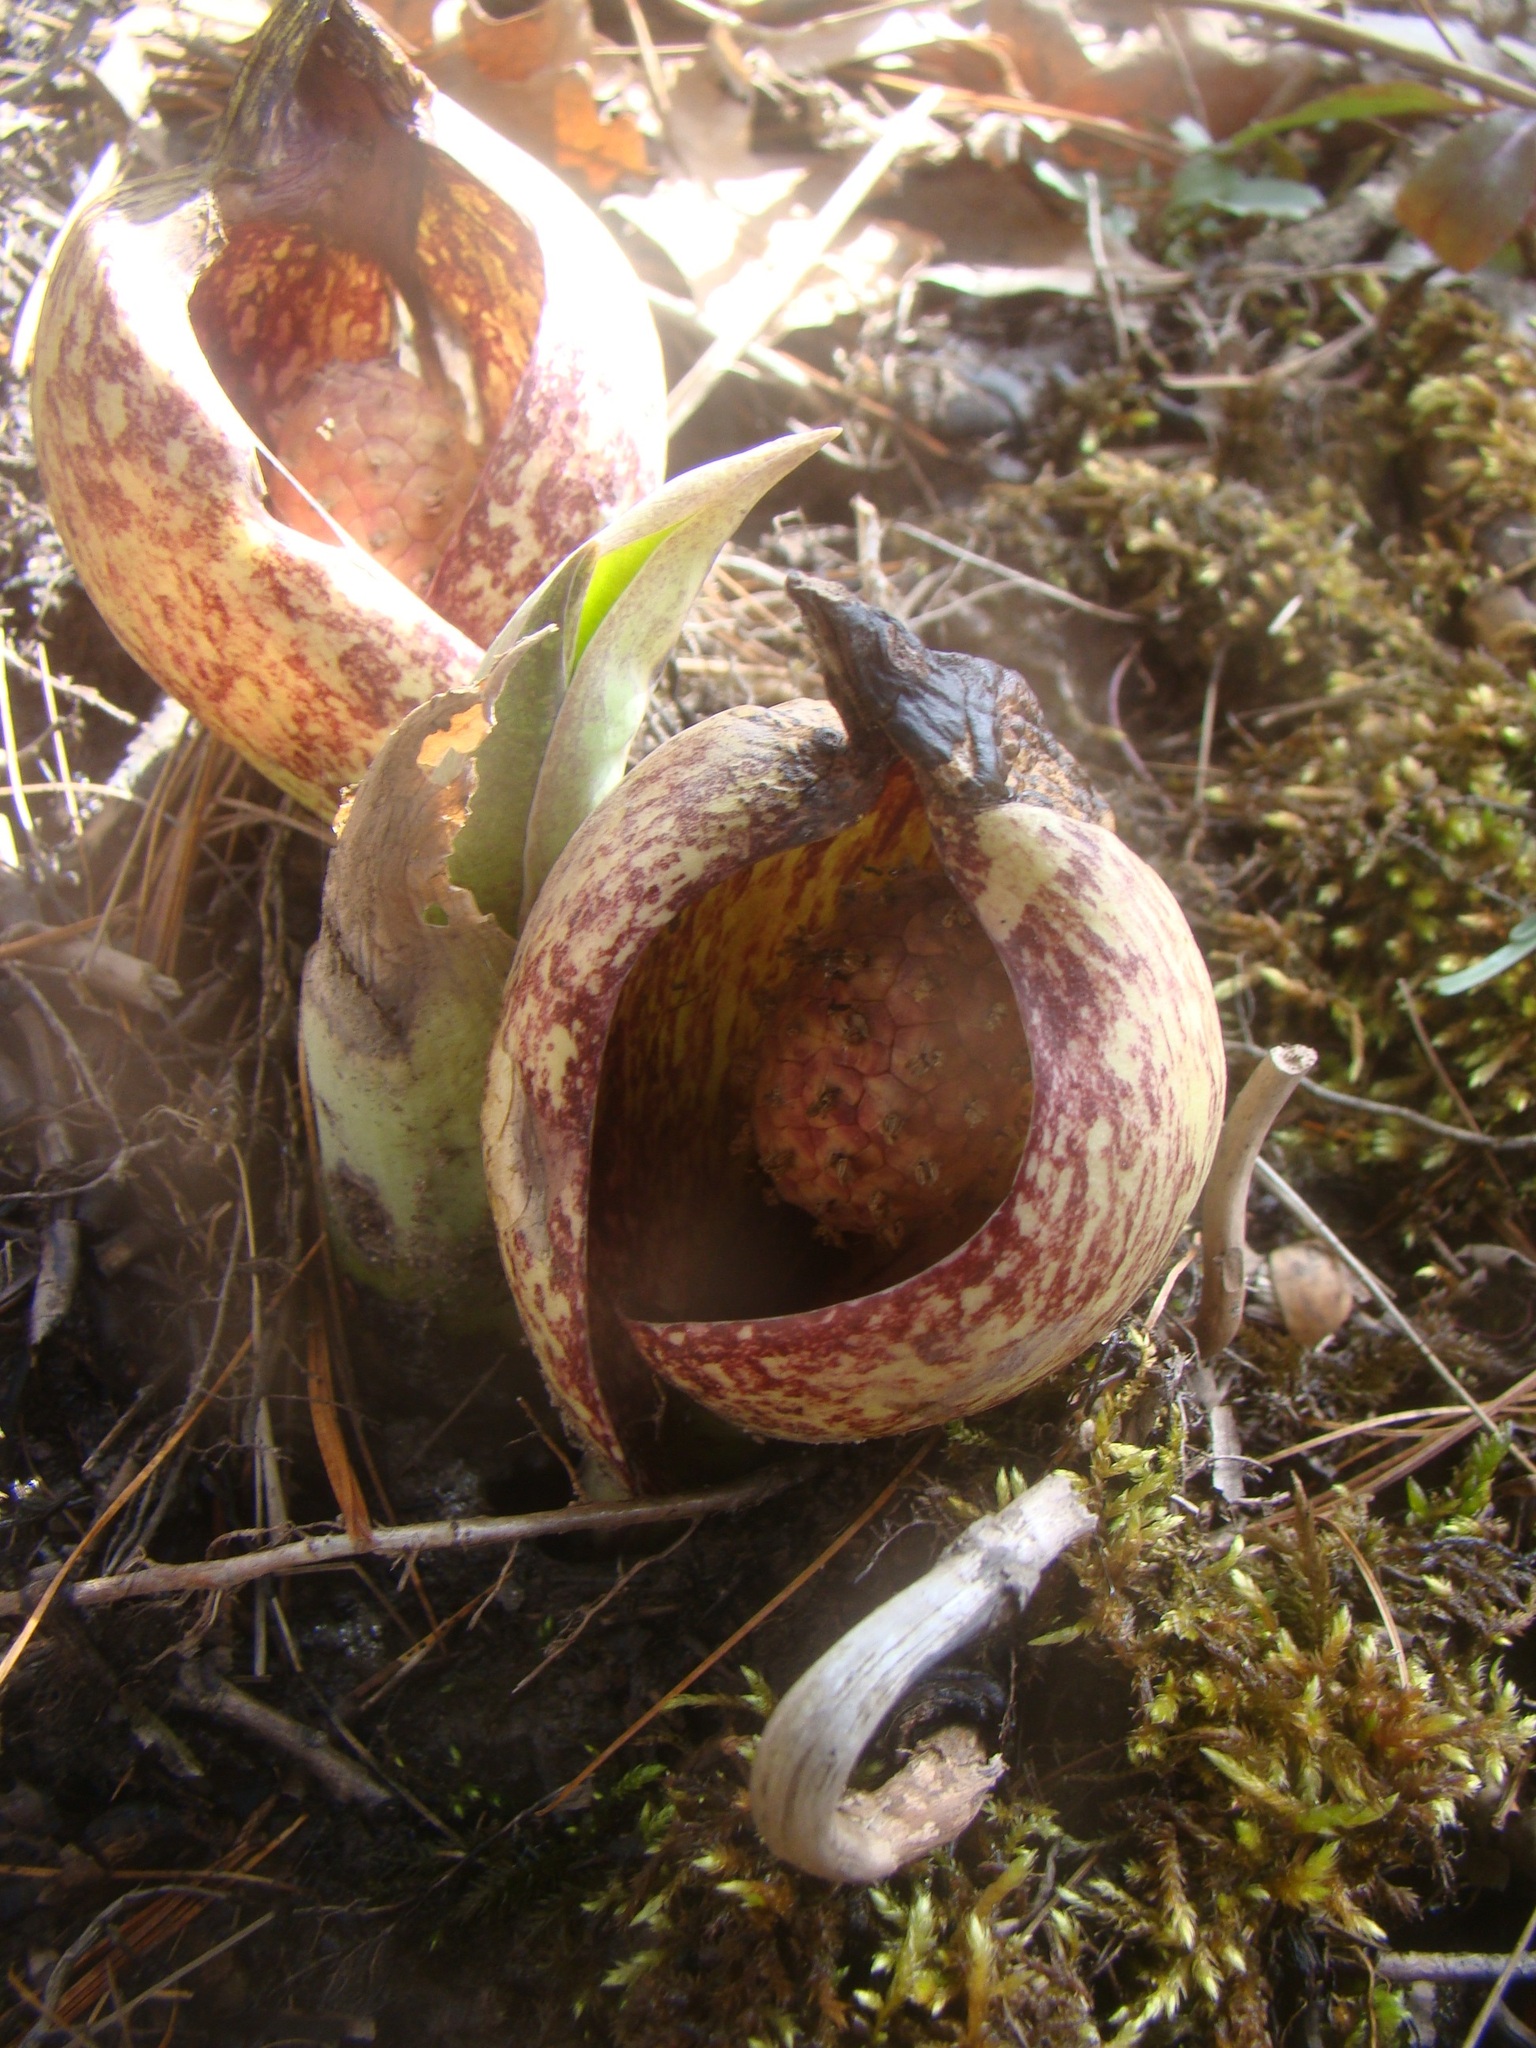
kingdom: Plantae
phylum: Tracheophyta
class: Liliopsida
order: Alismatales
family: Araceae
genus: Symplocarpus
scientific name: Symplocarpus foetidus
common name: Eastern skunk cabbage
